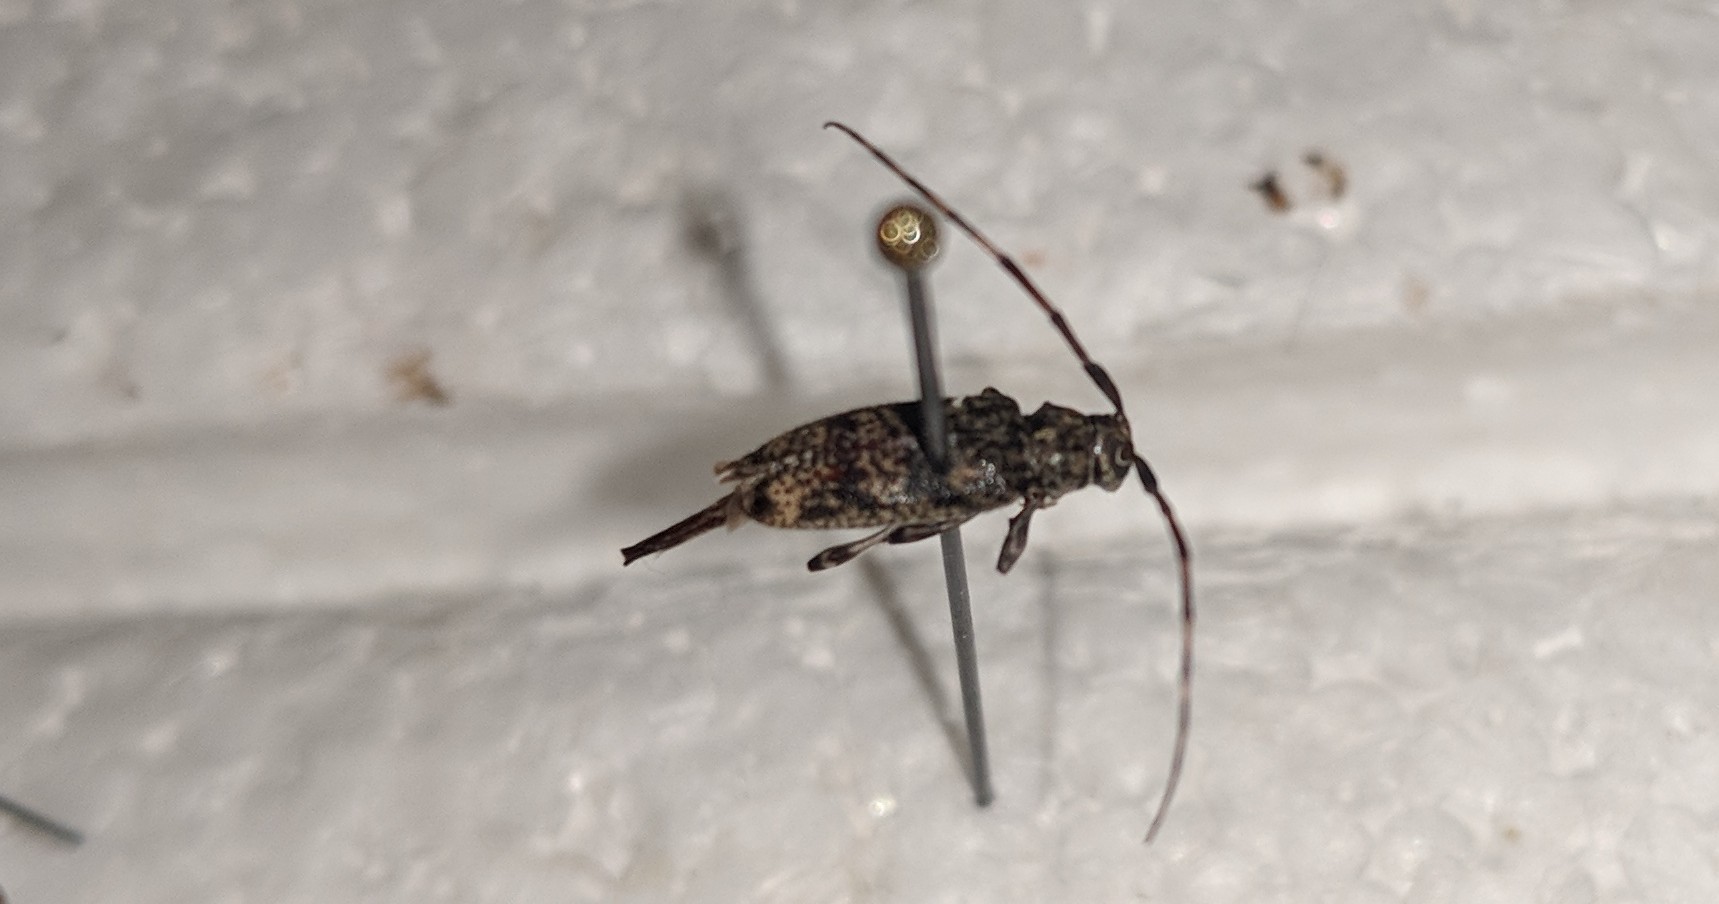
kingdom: Animalia
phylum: Arthropoda
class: Insecta
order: Coleoptera
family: Cerambycidae
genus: Graphisurus
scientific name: Graphisurus fasciatus
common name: Banded graphisurus
